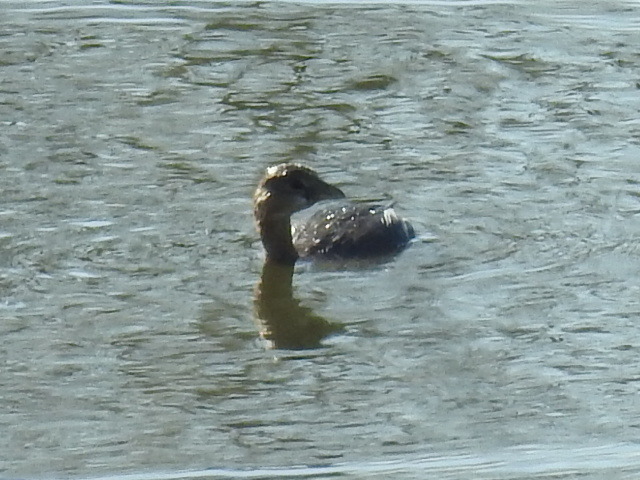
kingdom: Animalia
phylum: Chordata
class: Aves
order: Podicipediformes
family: Podicipedidae
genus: Podilymbus
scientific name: Podilymbus podiceps
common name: Pied-billed grebe
